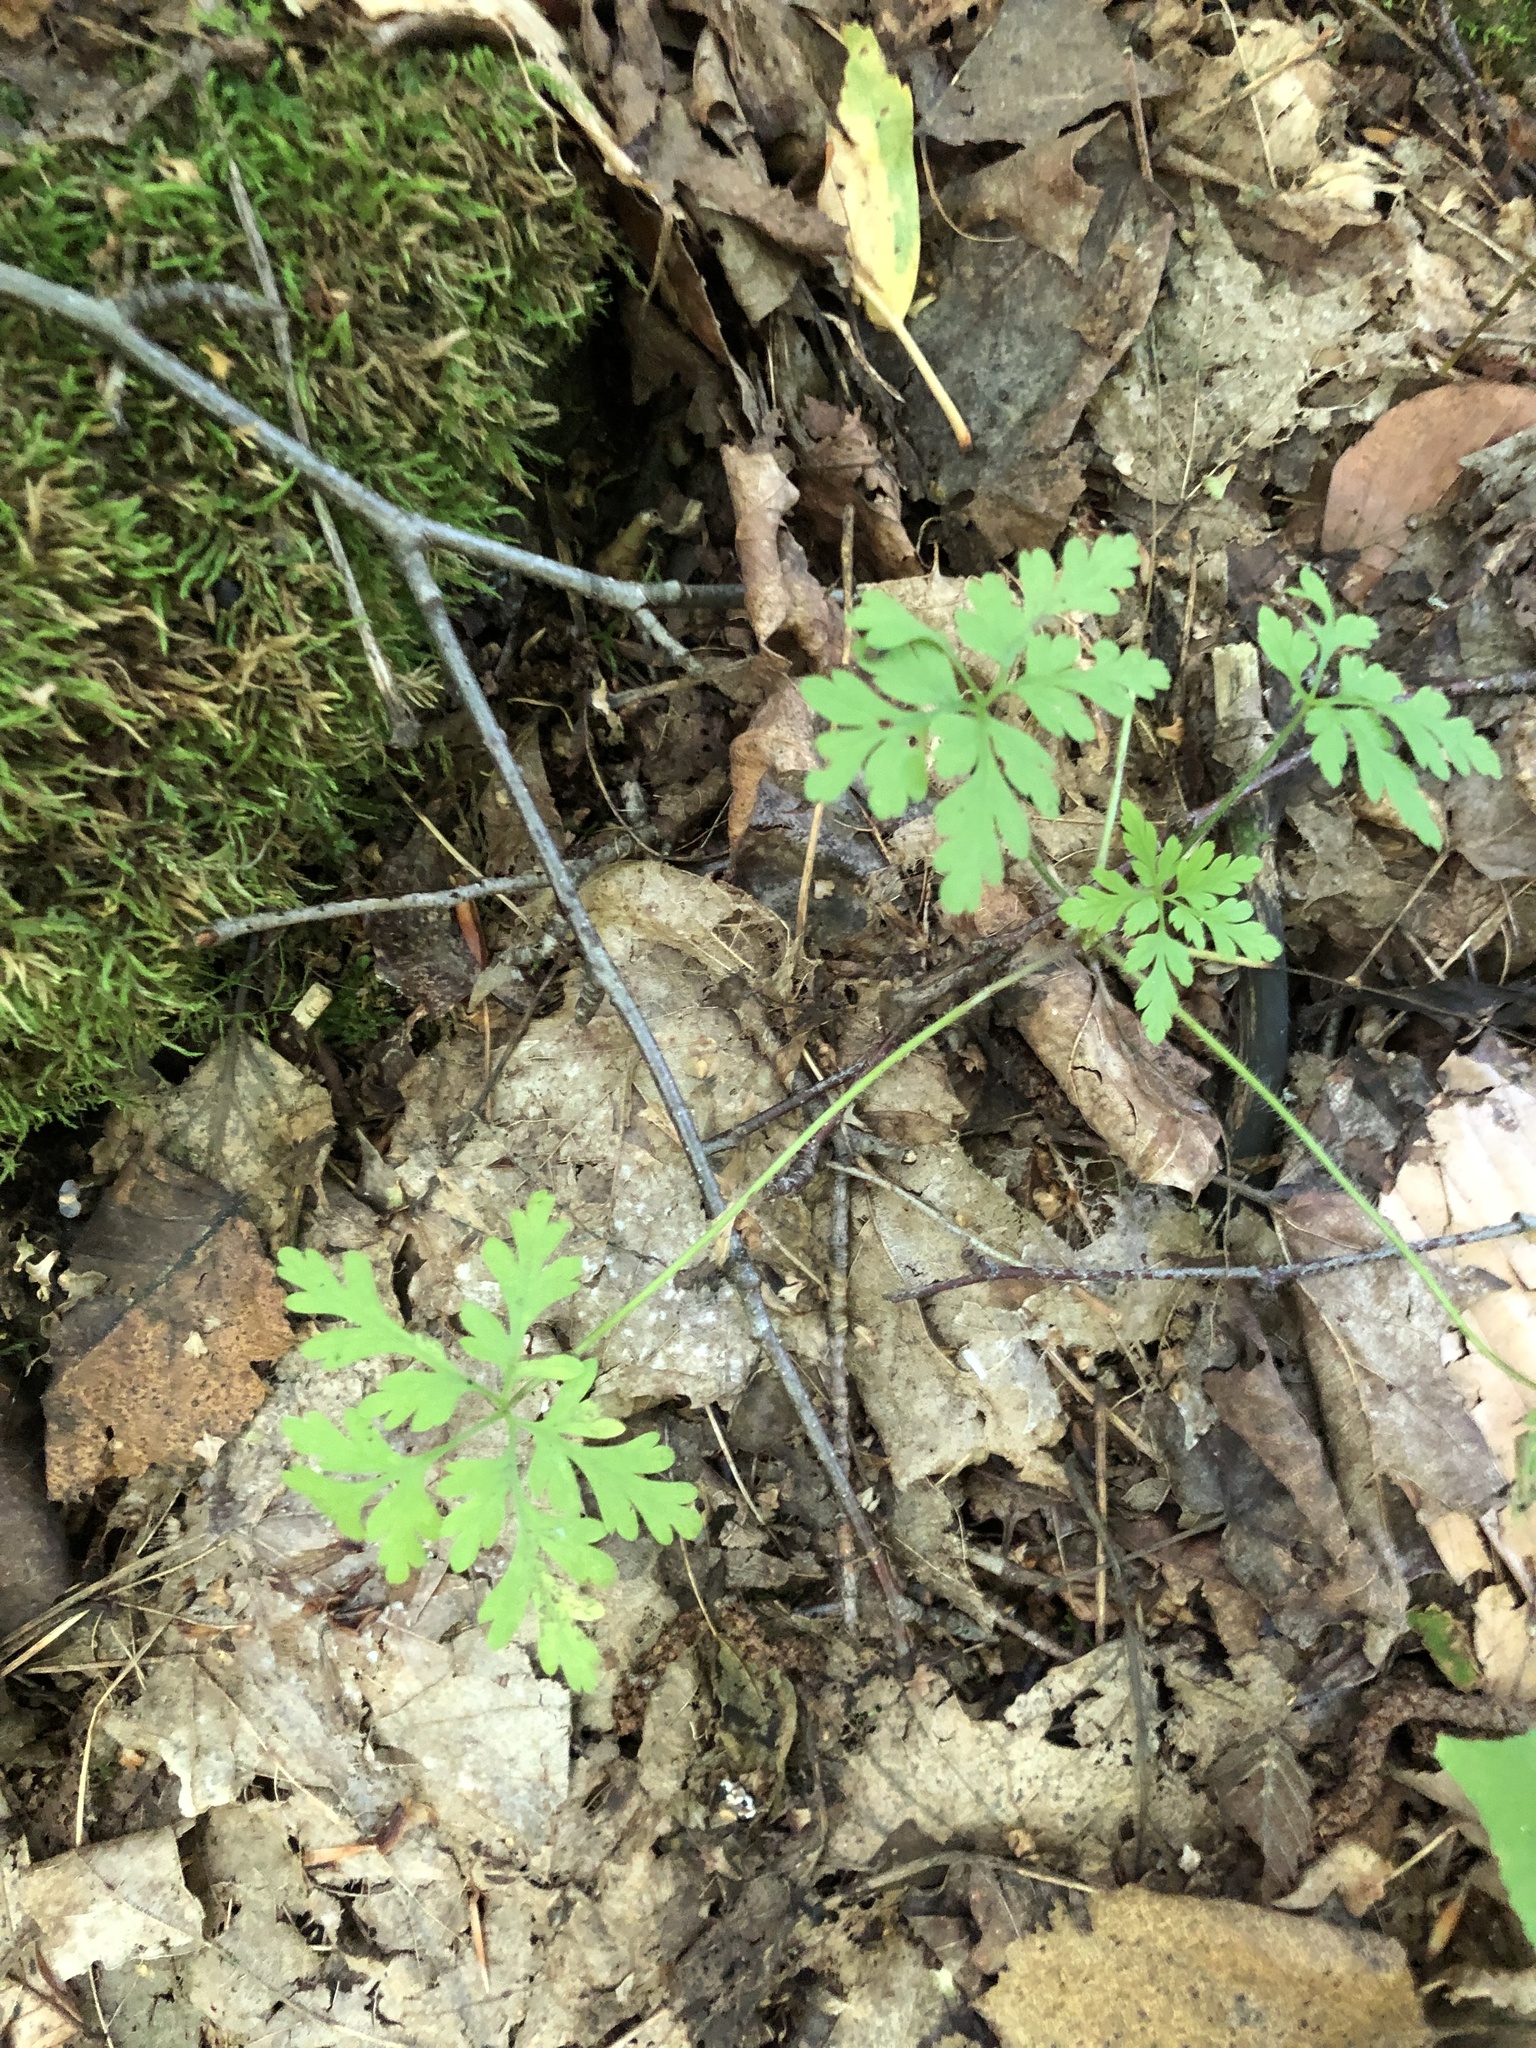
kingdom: Plantae
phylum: Tracheophyta
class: Magnoliopsida
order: Geraniales
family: Geraniaceae
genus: Geranium
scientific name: Geranium robertianum
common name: Herb-robert
